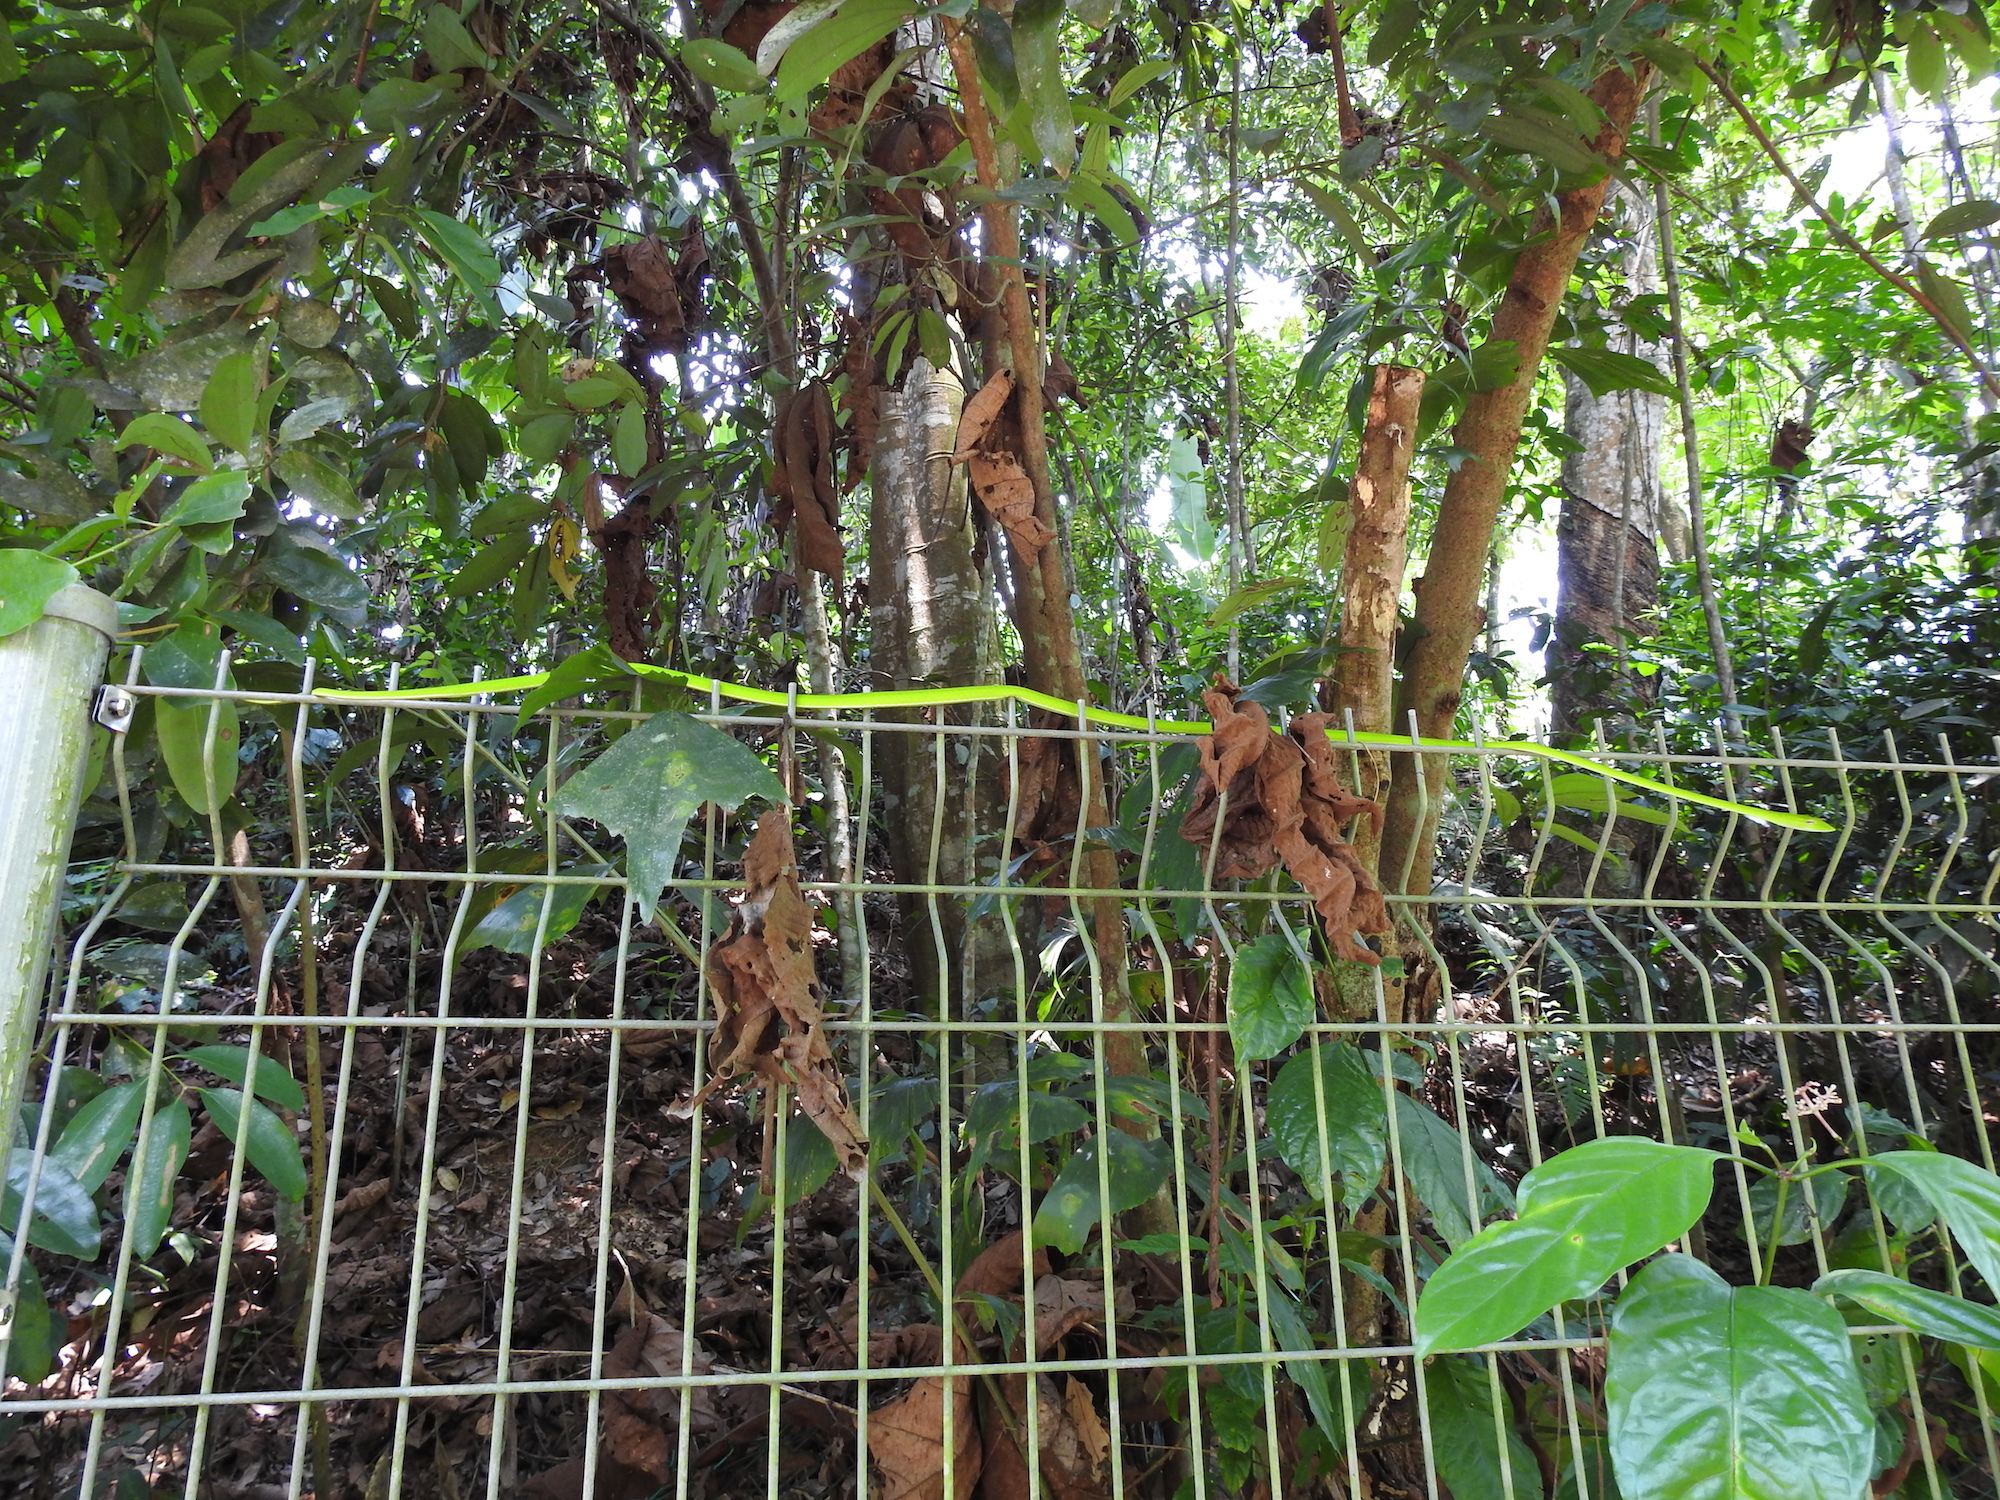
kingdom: Animalia
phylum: Chordata
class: Squamata
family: Colubridae
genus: Ahaetulla
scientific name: Ahaetulla prasina
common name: Oriental whip snake
